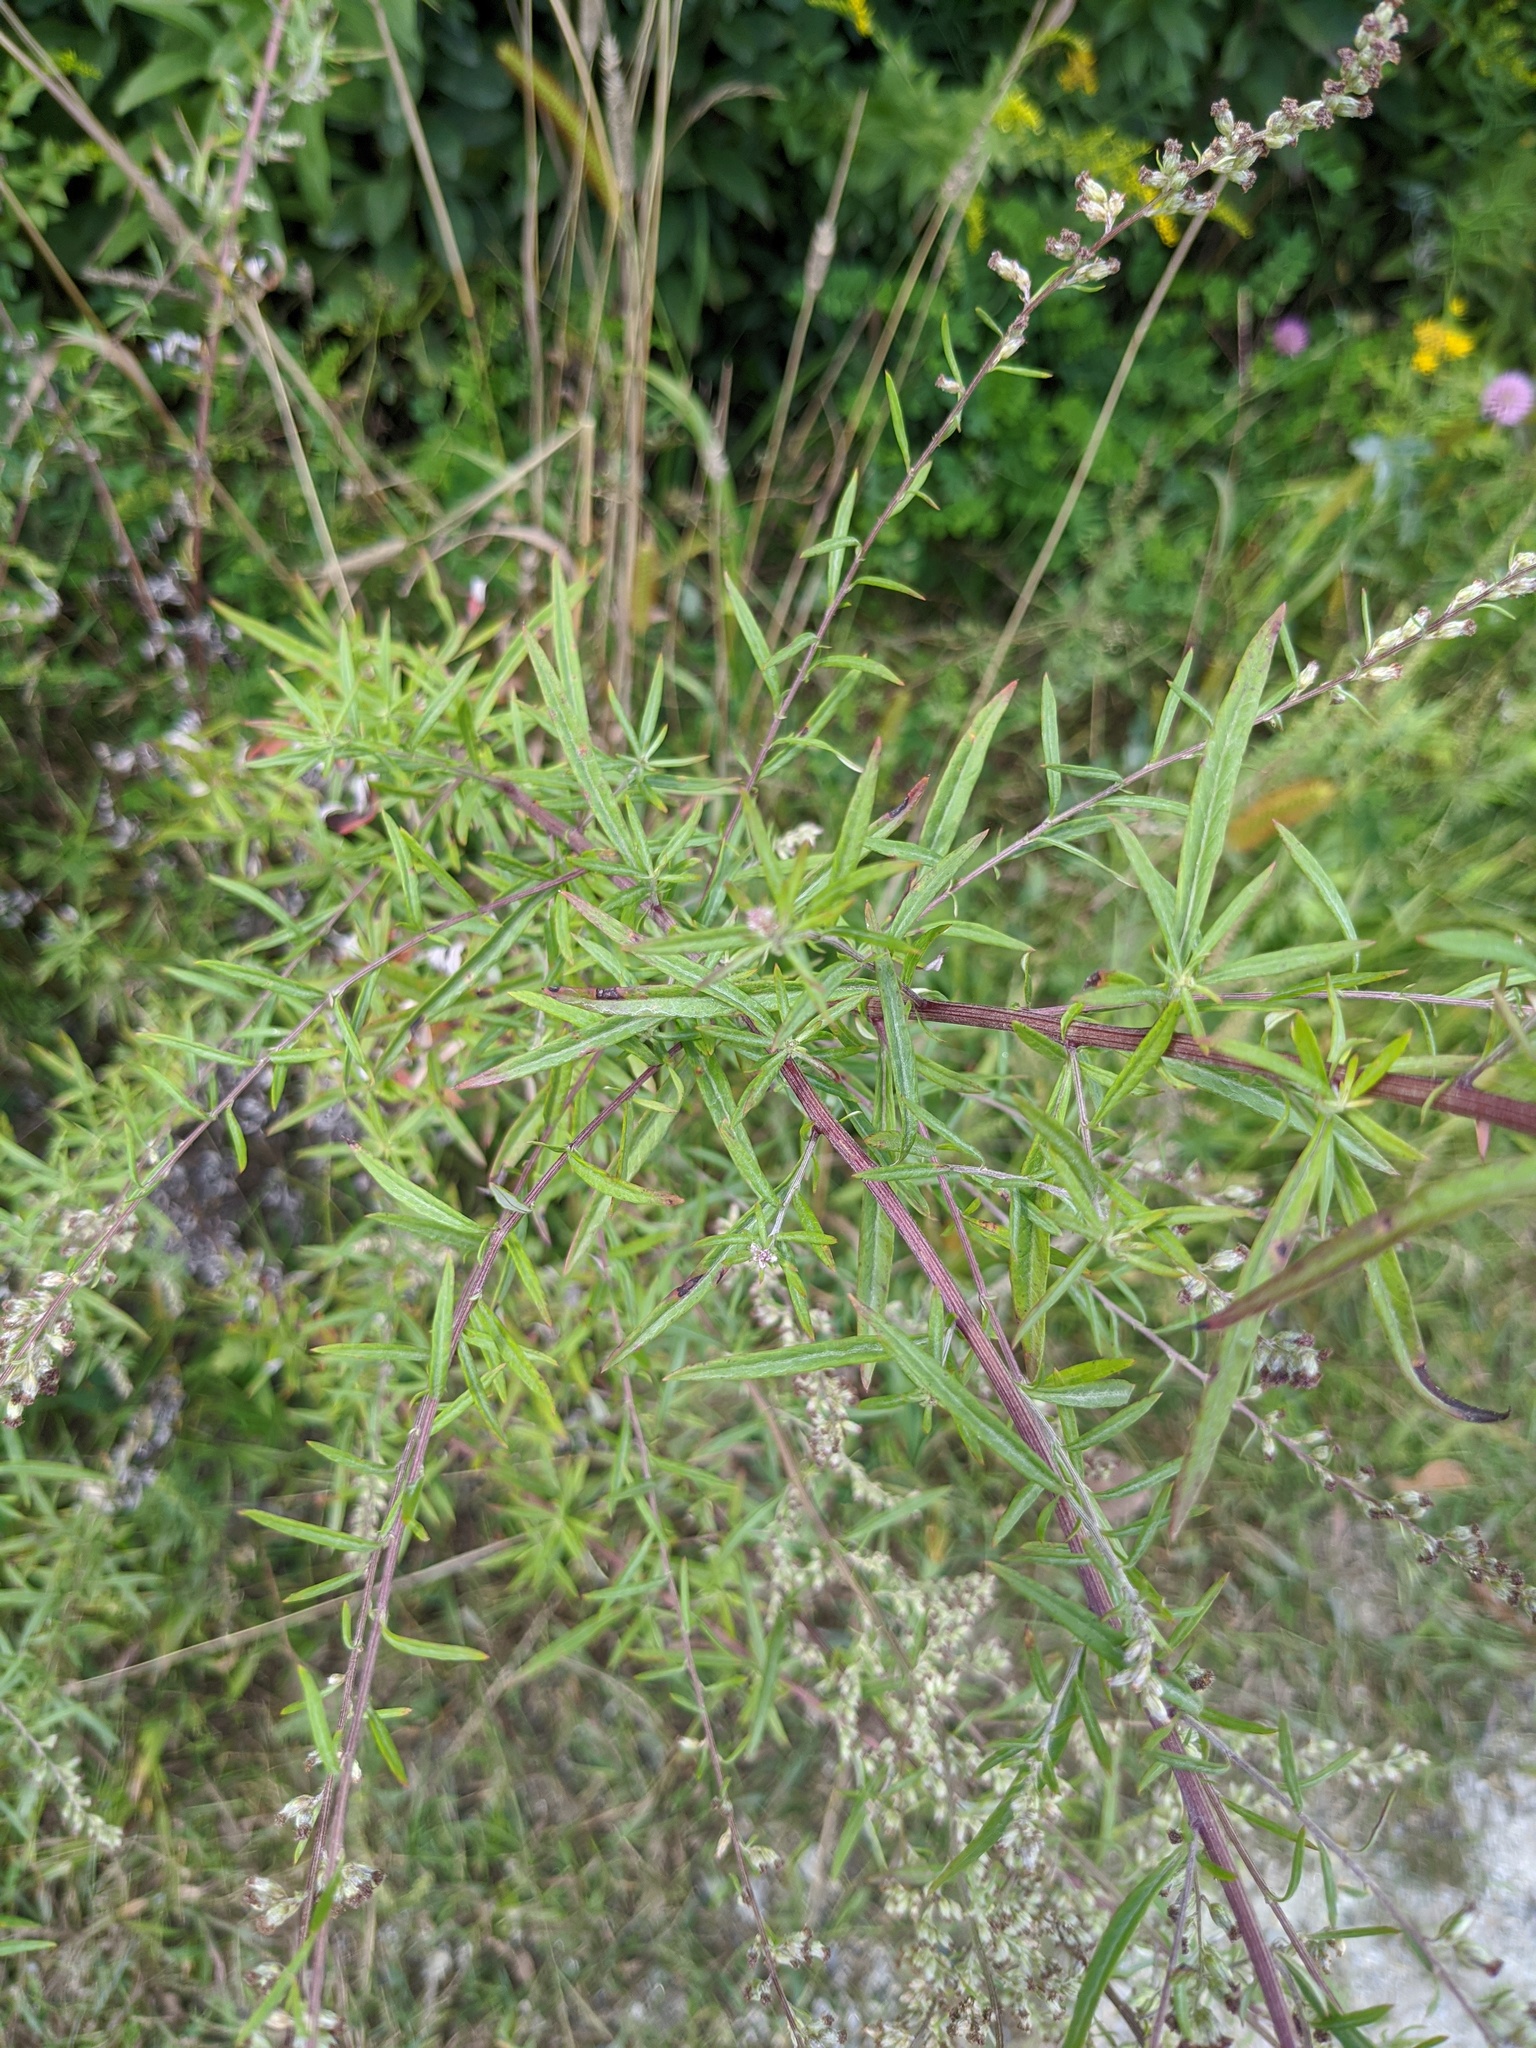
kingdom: Plantae
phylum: Tracheophyta
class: Magnoliopsida
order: Asterales
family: Asteraceae
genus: Artemisia
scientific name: Artemisia vulgaris
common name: Mugwort
